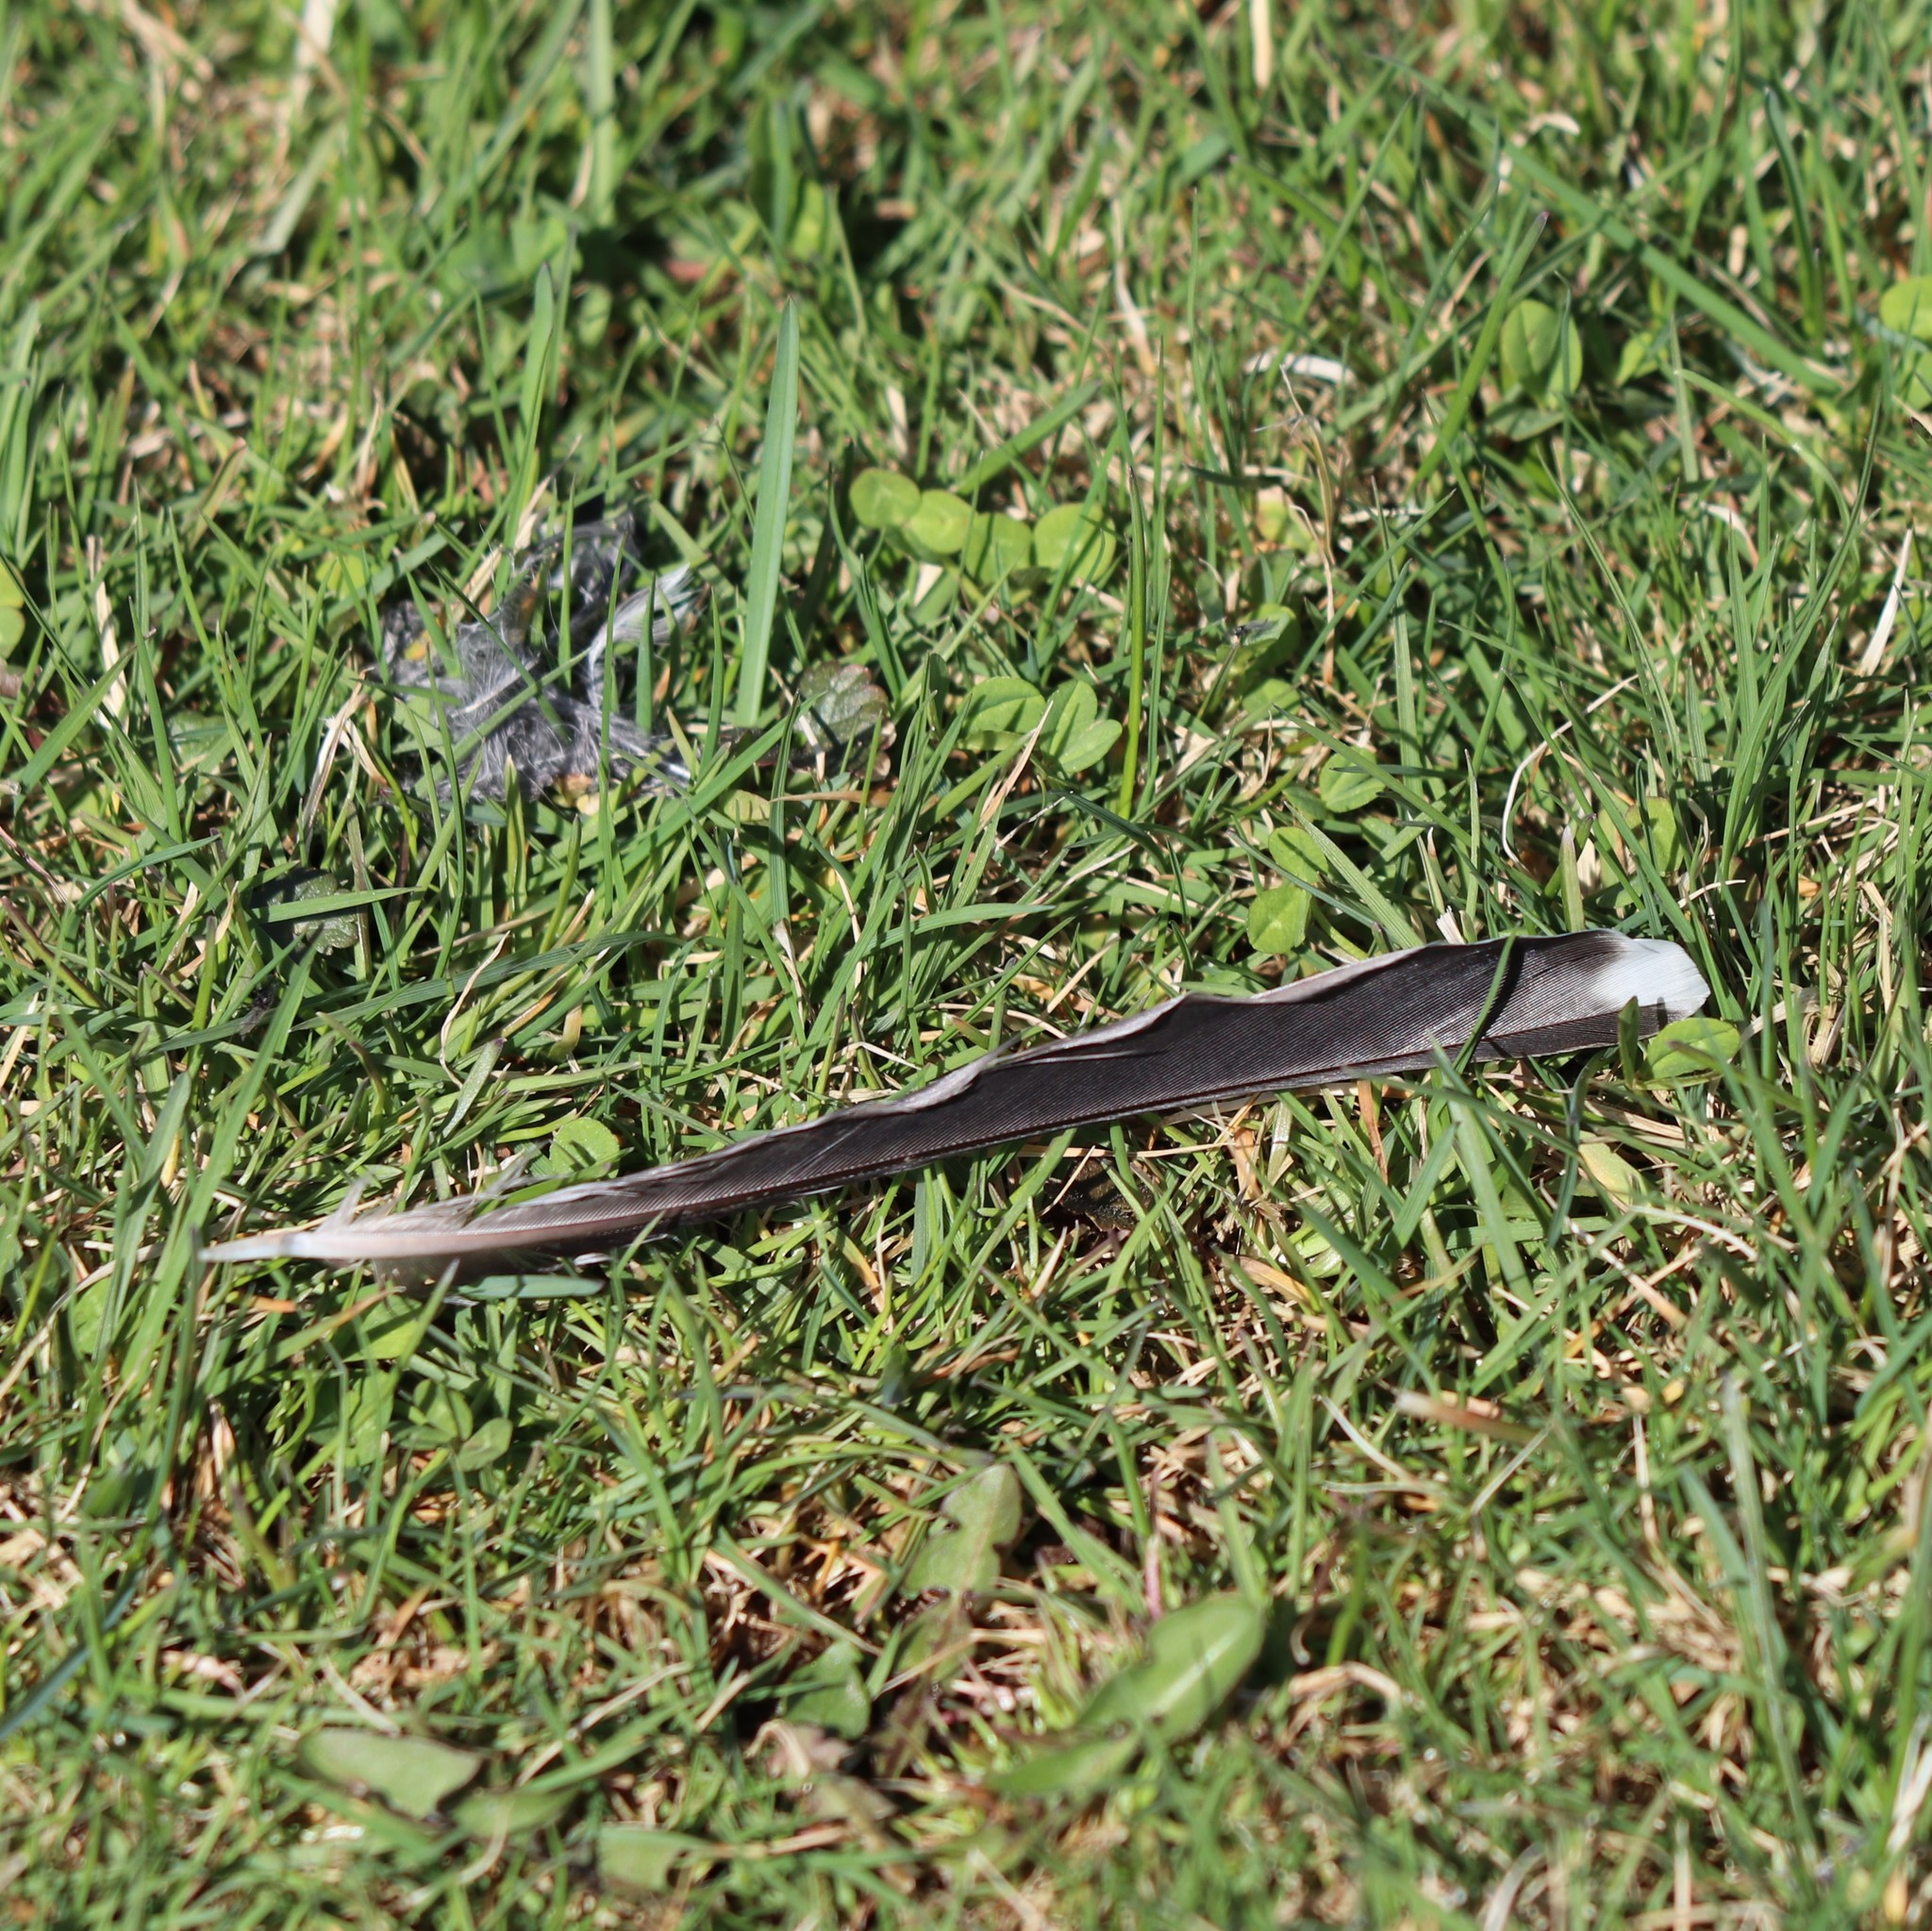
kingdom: Animalia
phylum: Chordata
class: Aves
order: Passeriformes
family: Turdidae
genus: Turdus
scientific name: Turdus migratorius
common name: American robin
